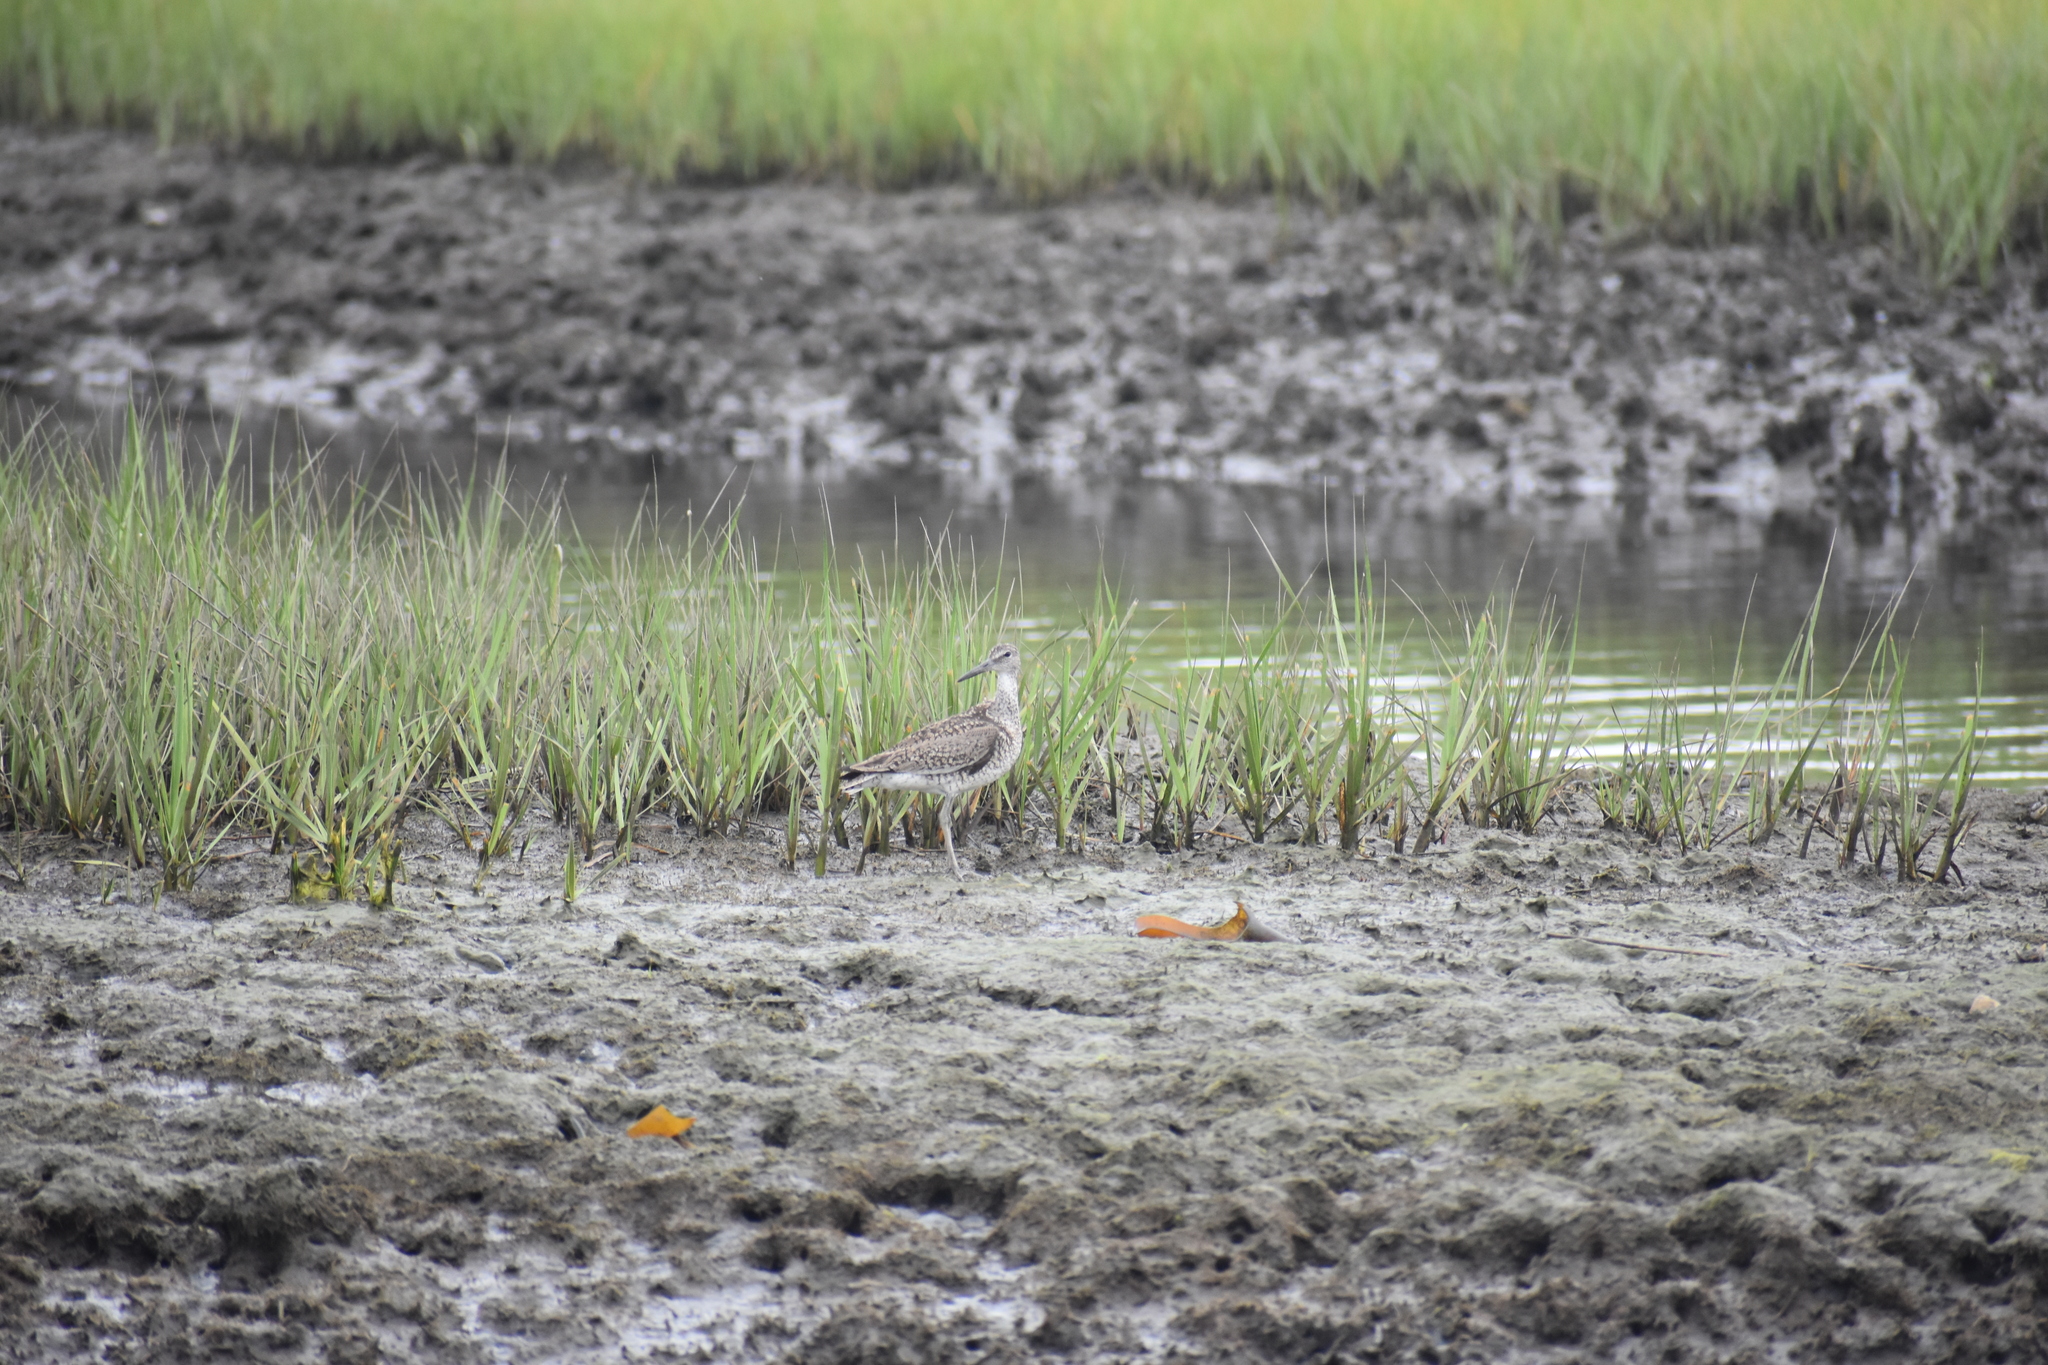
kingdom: Animalia
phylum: Chordata
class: Aves
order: Charadriiformes
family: Scolopacidae
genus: Tringa
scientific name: Tringa semipalmata
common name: Willet
